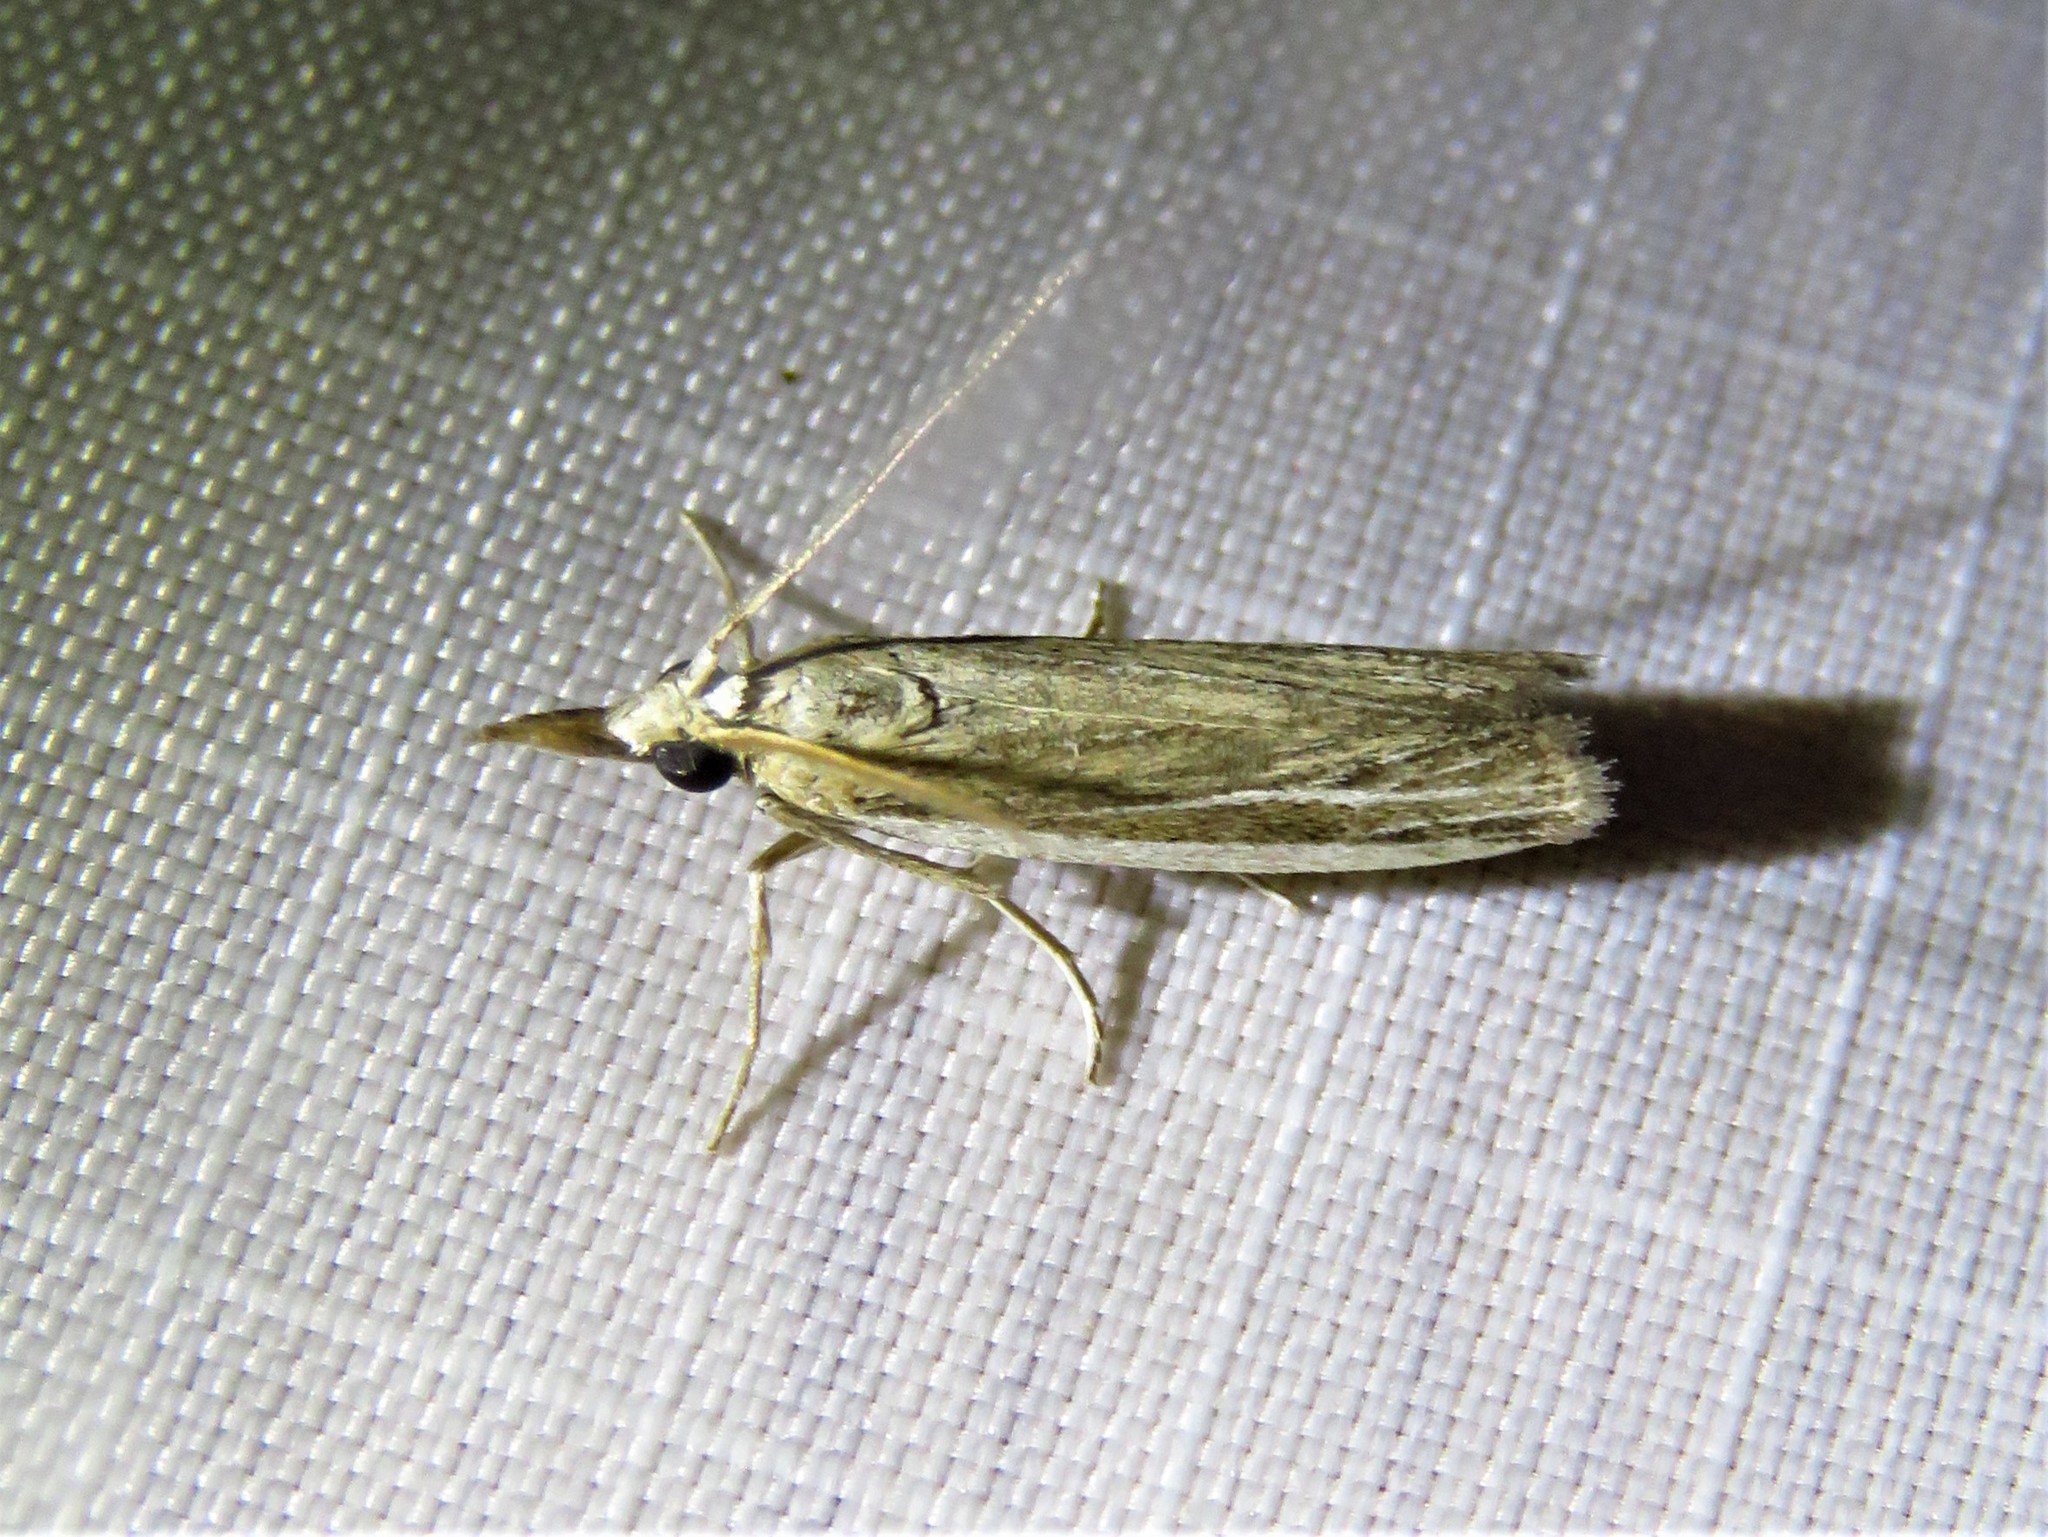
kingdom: Animalia
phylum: Arthropoda
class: Insecta
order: Lepidoptera
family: Pyralidae
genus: Peoria
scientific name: Peoria tetradella
